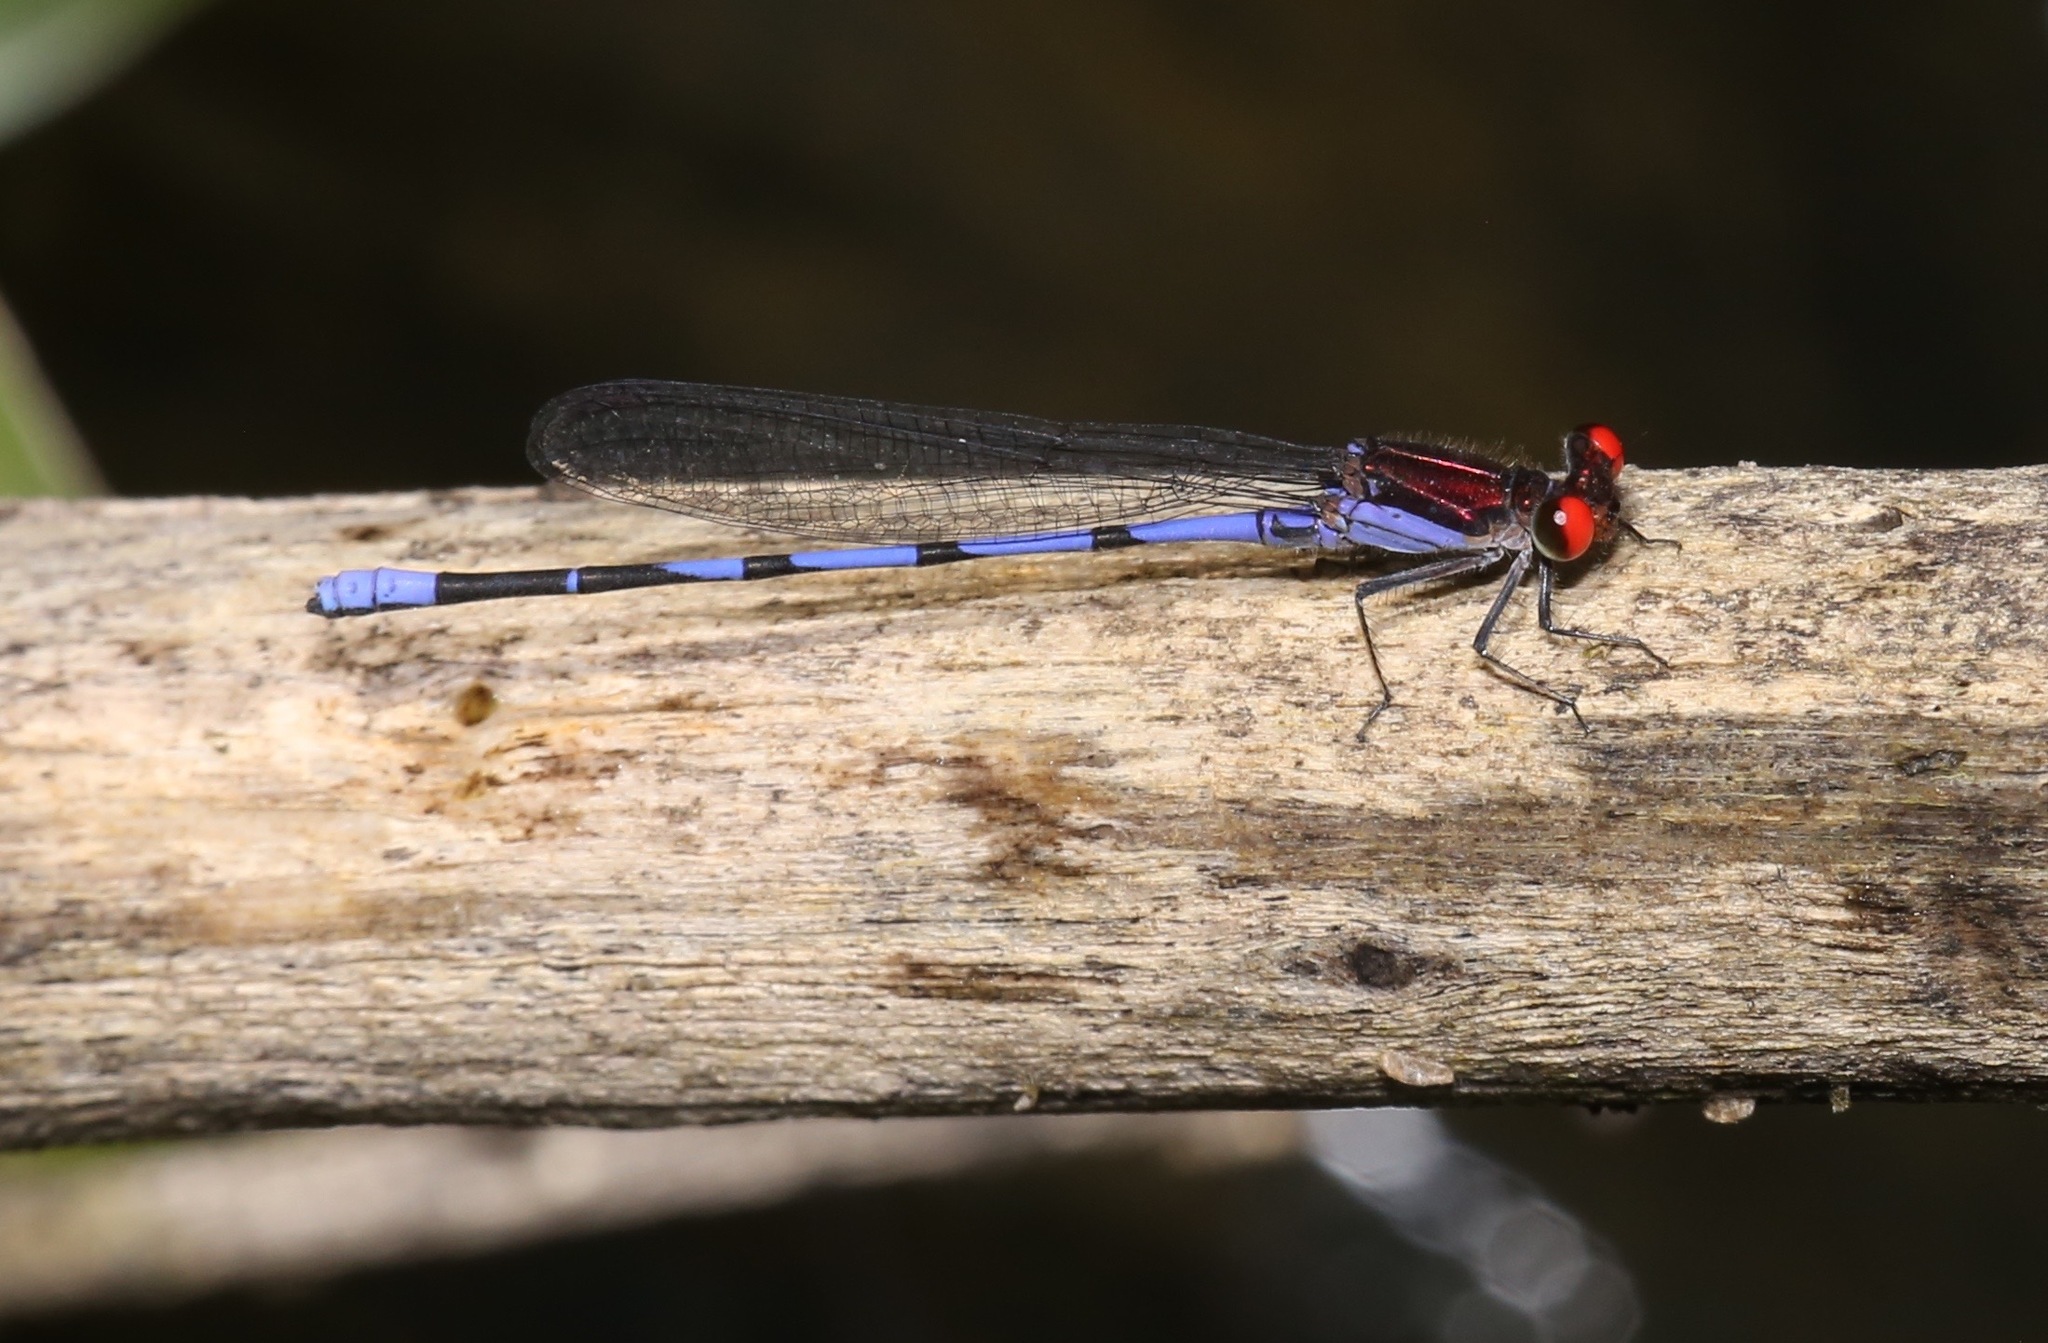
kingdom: Animalia
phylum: Arthropoda
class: Insecta
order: Odonata
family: Coenagrionidae
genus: Argia
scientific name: Argia oenea
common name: Fiery-eyed dancer
